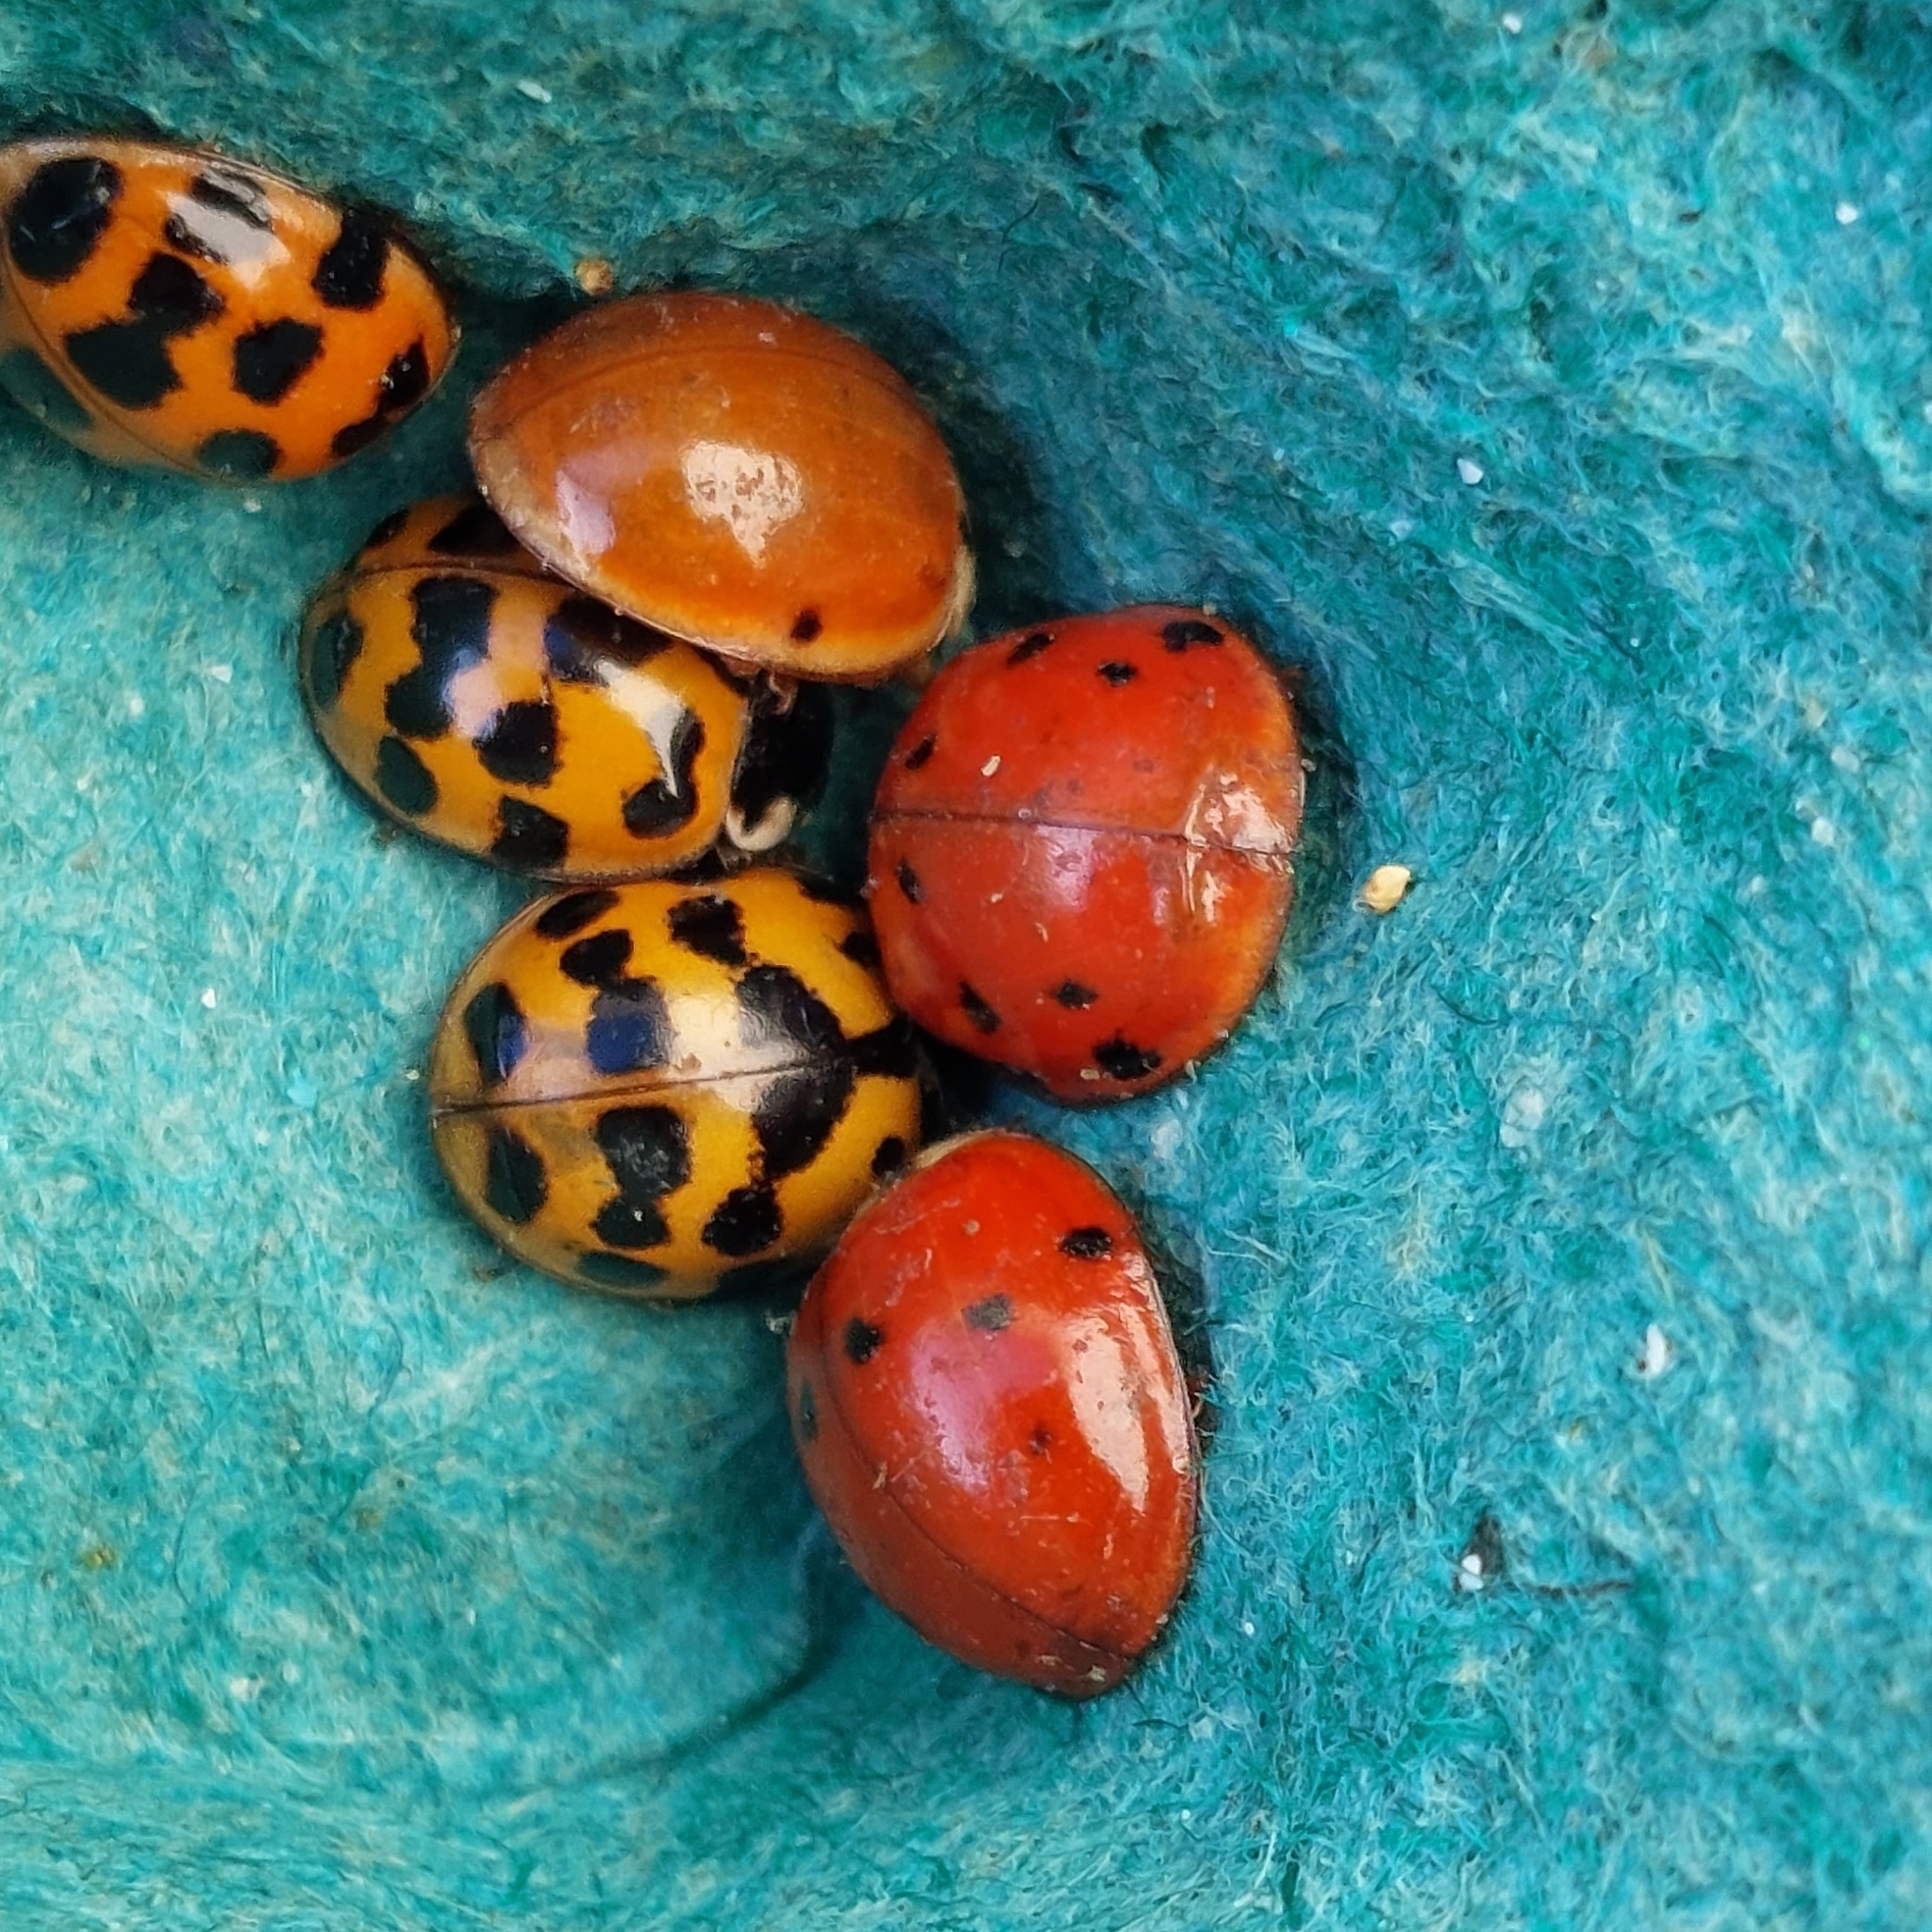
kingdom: Animalia
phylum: Arthropoda
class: Insecta
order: Coleoptera
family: Coccinellidae
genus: Harmonia
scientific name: Harmonia axyridis
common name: Harlequin ladybird
